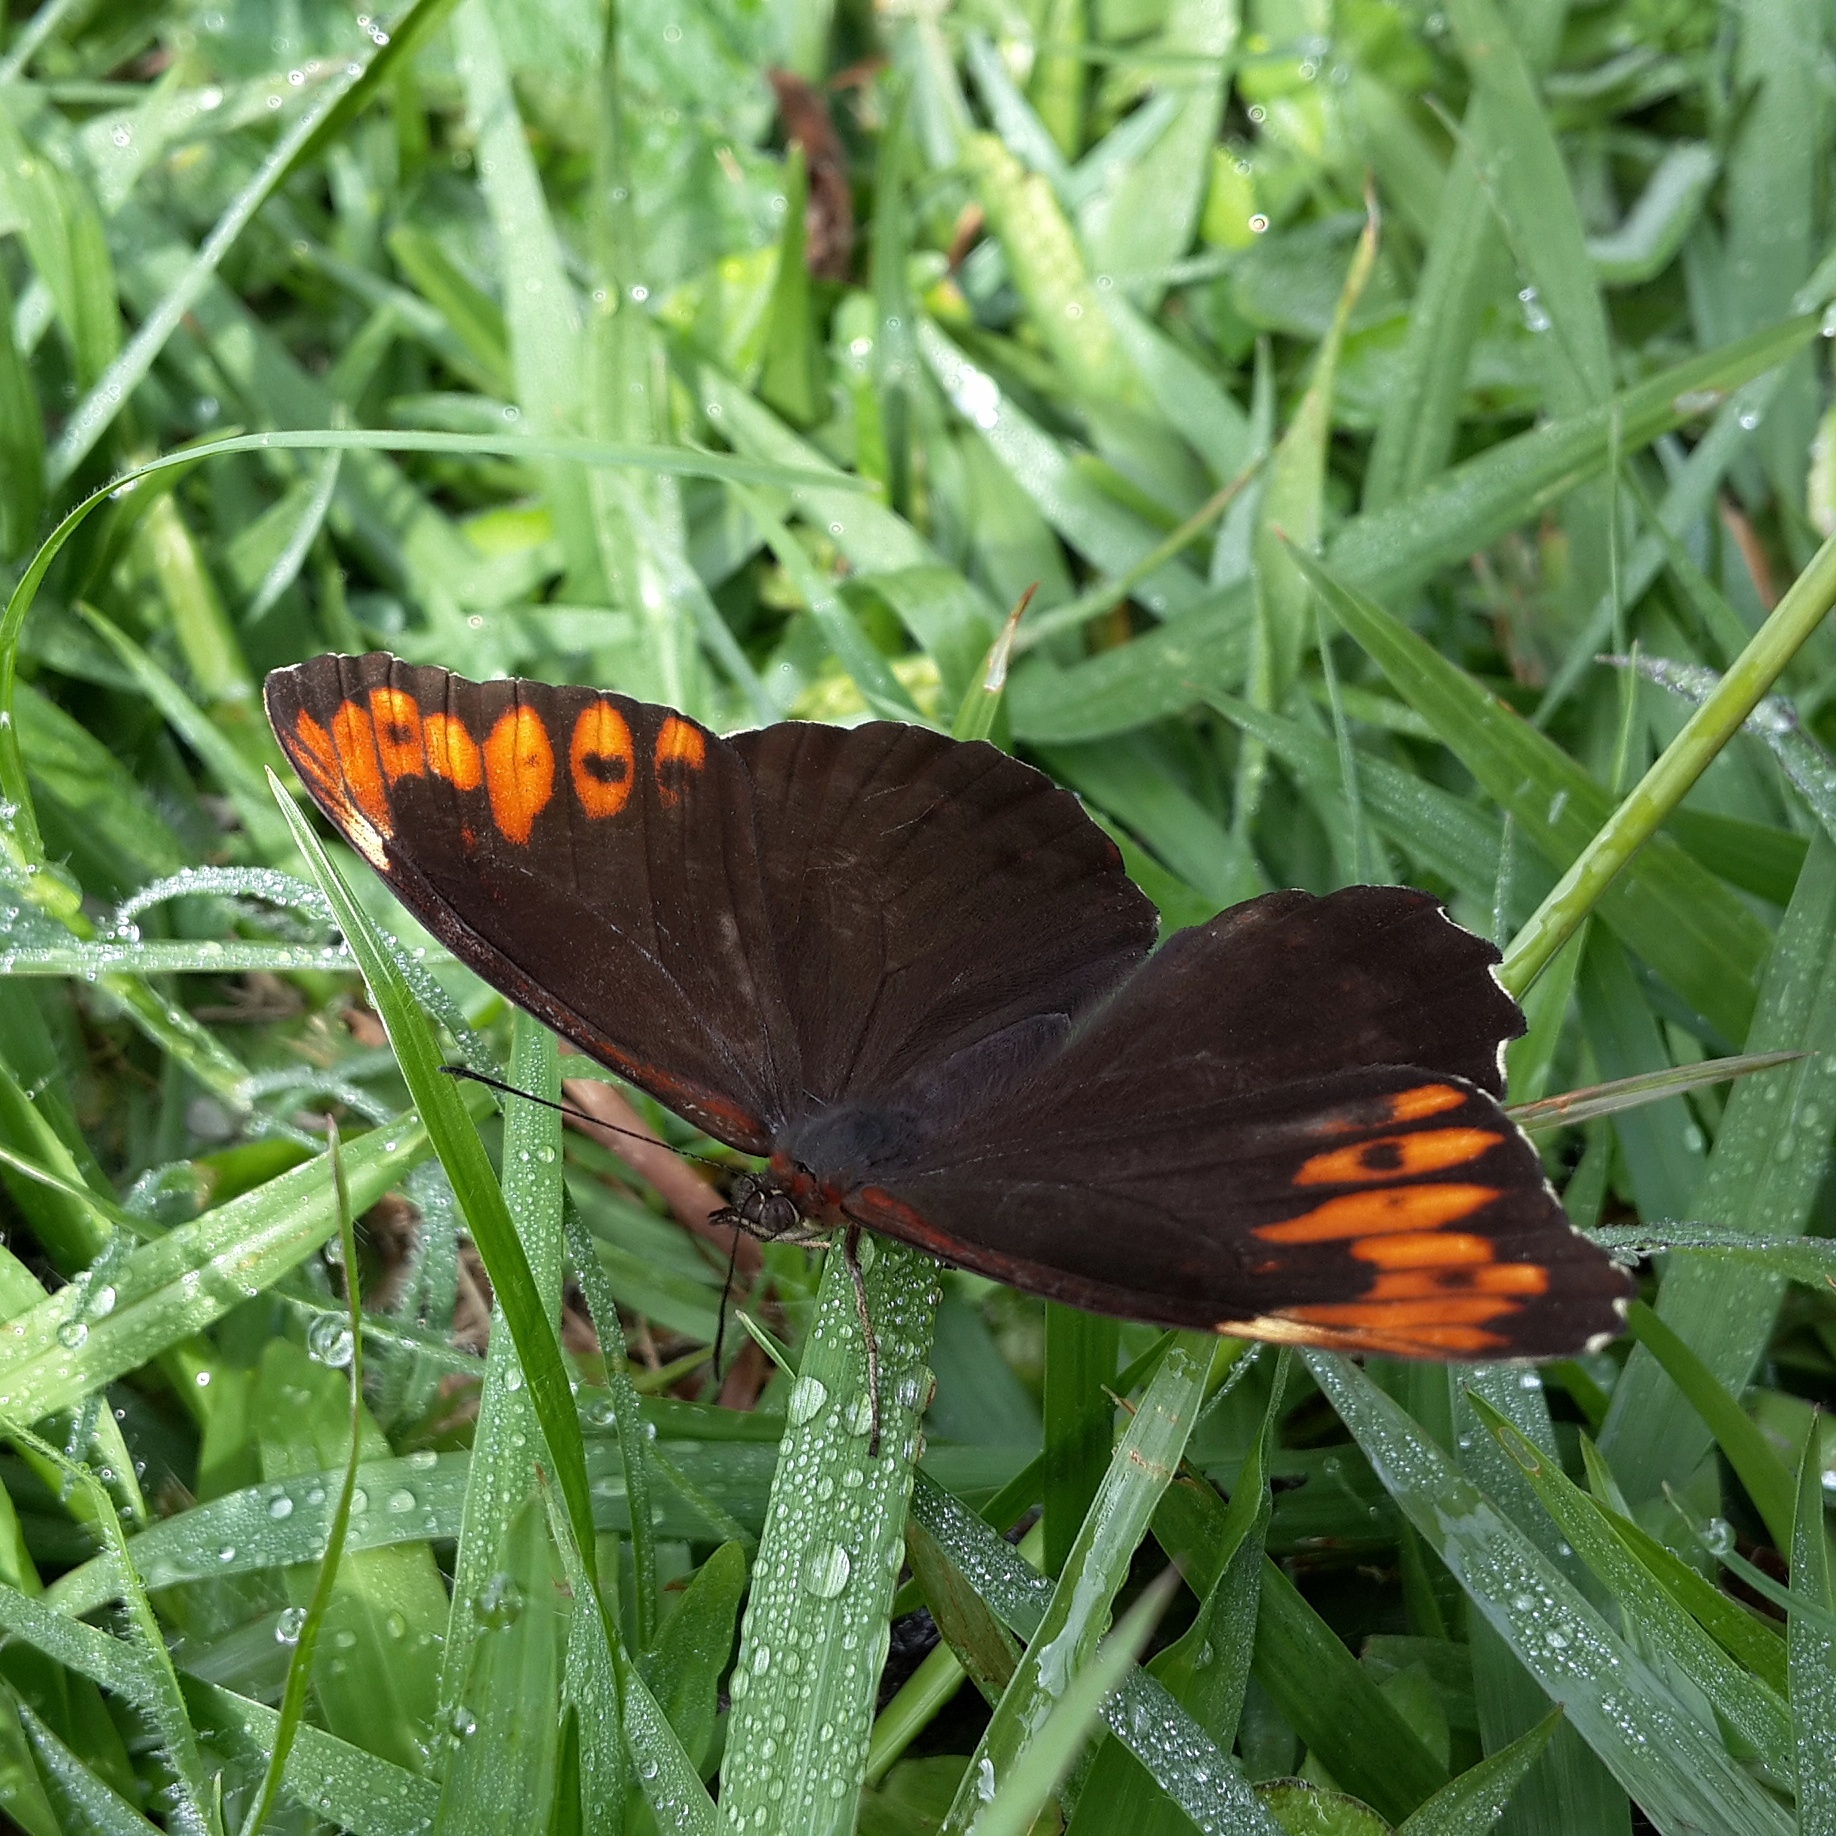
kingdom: Animalia
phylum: Arthropoda
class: Insecta
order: Lepidoptera
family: Nymphalidae
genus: Pronophila
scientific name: Pronophila timanthes
